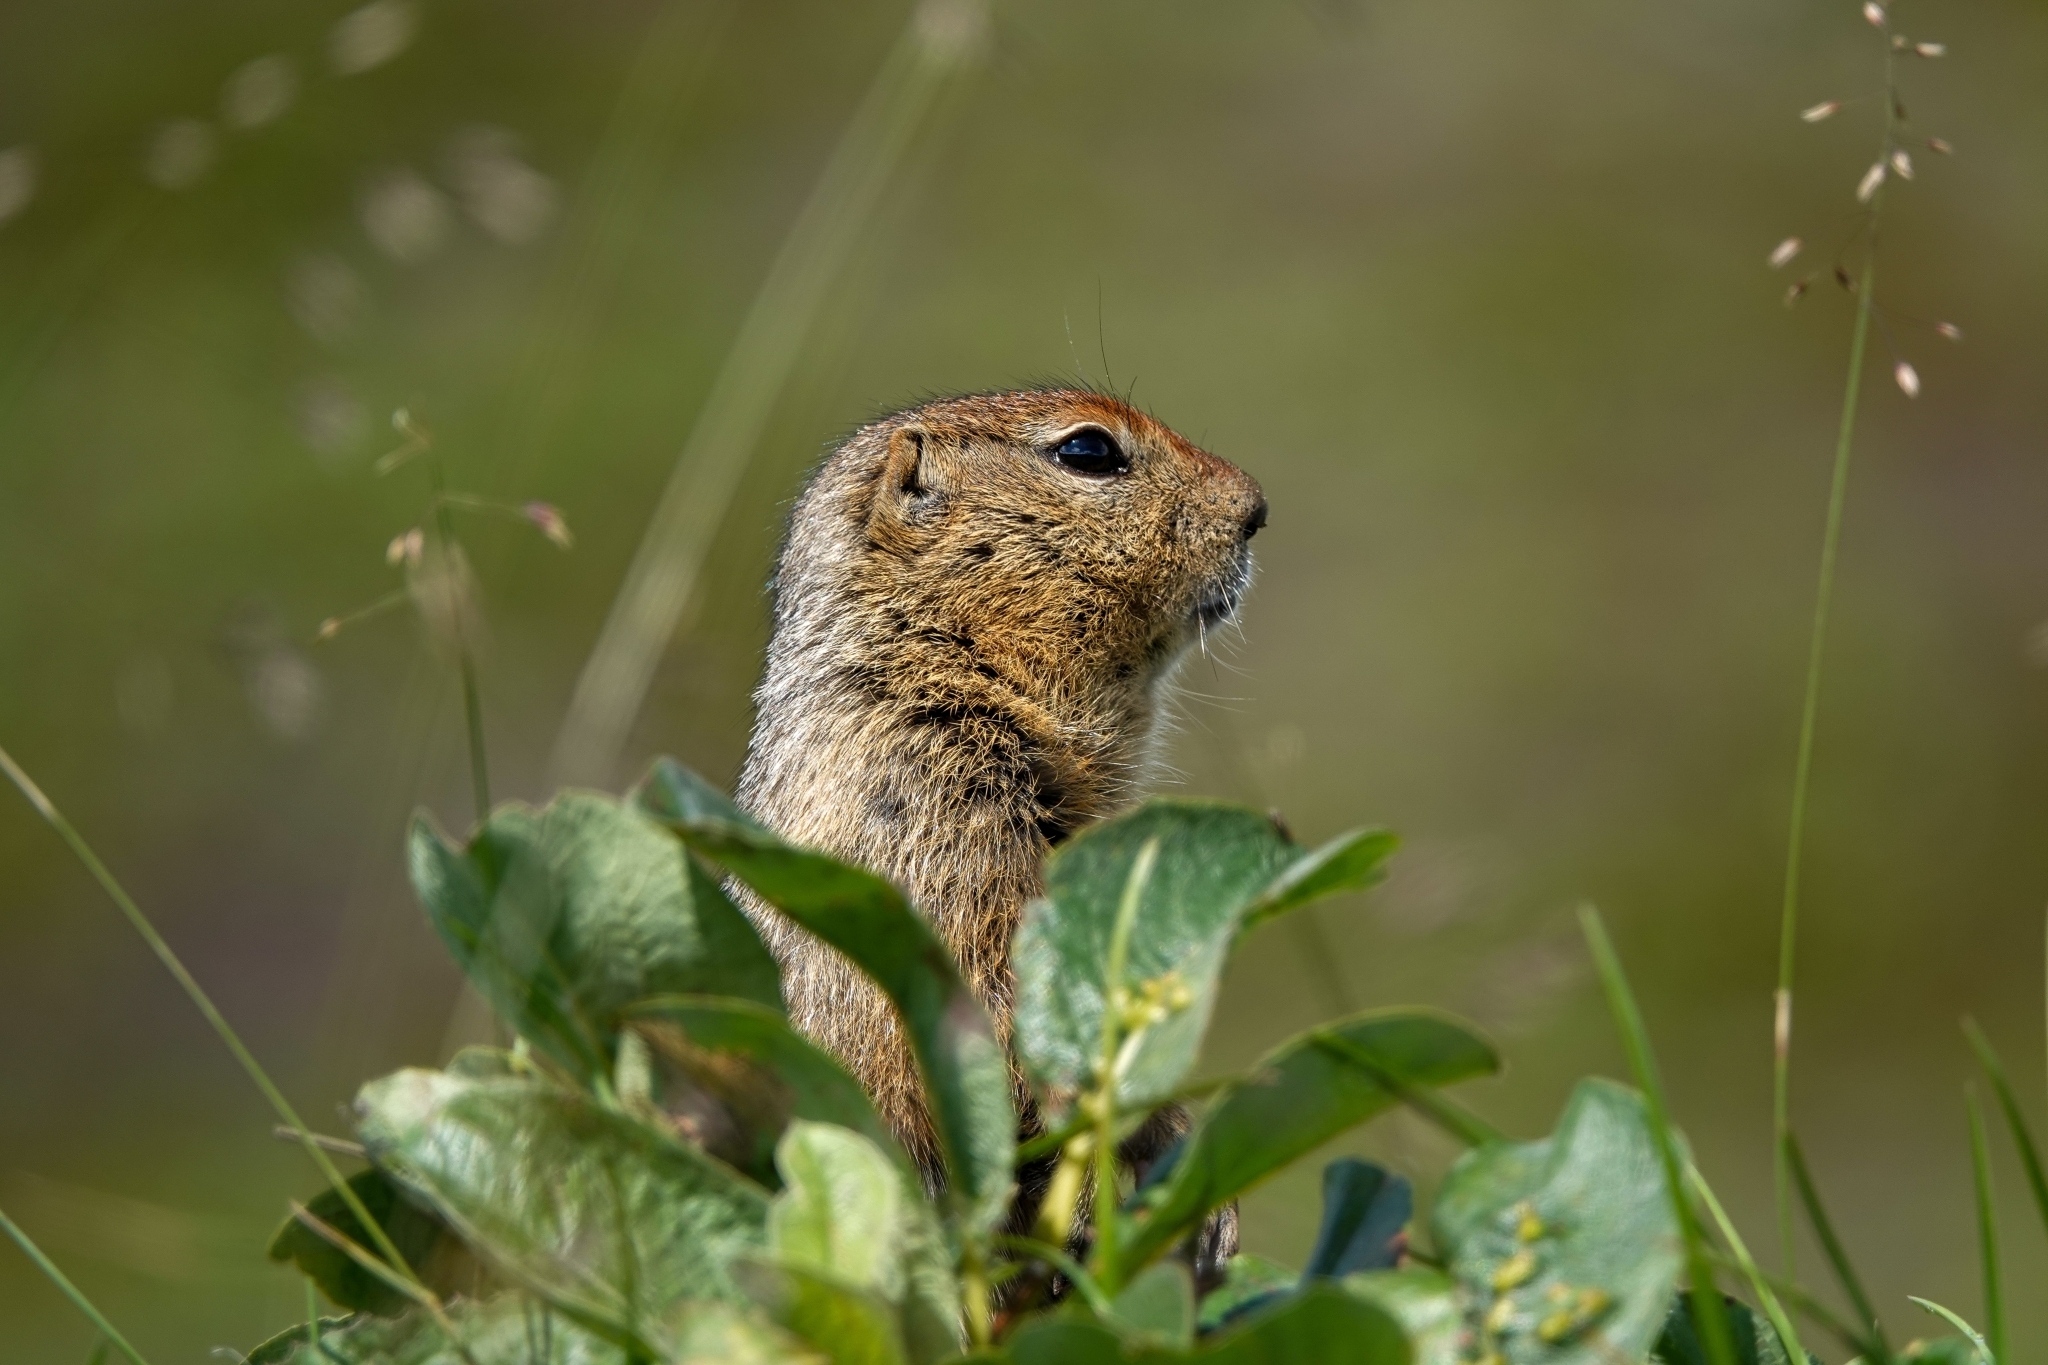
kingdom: Animalia
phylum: Chordata
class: Mammalia
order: Rodentia
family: Sciuridae
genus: Urocitellus
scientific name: Urocitellus parryii
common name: Arctic ground squirrel
